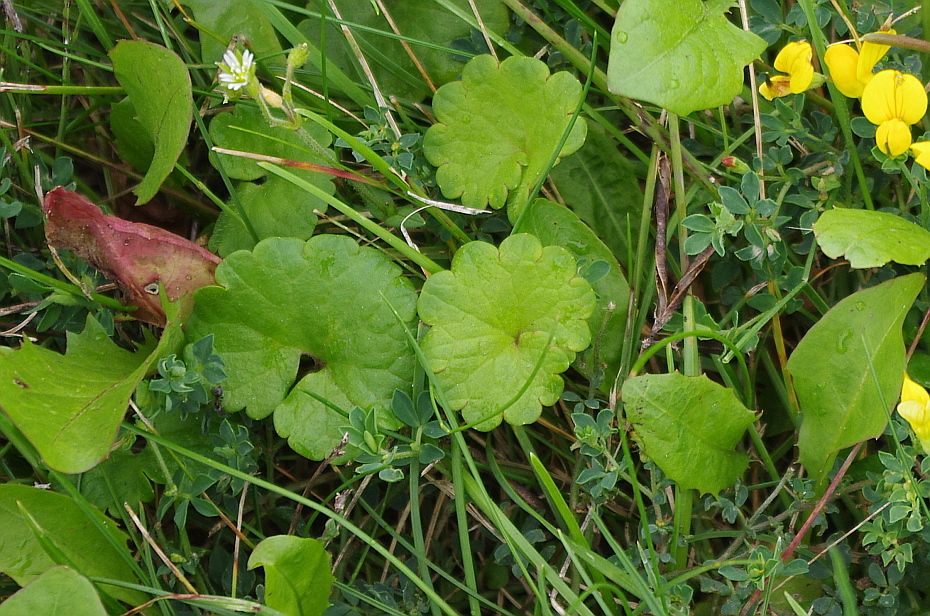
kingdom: Plantae
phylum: Tracheophyta
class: Magnoliopsida
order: Lamiales
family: Lamiaceae
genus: Glechoma
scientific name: Glechoma hederacea
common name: Ground ivy
